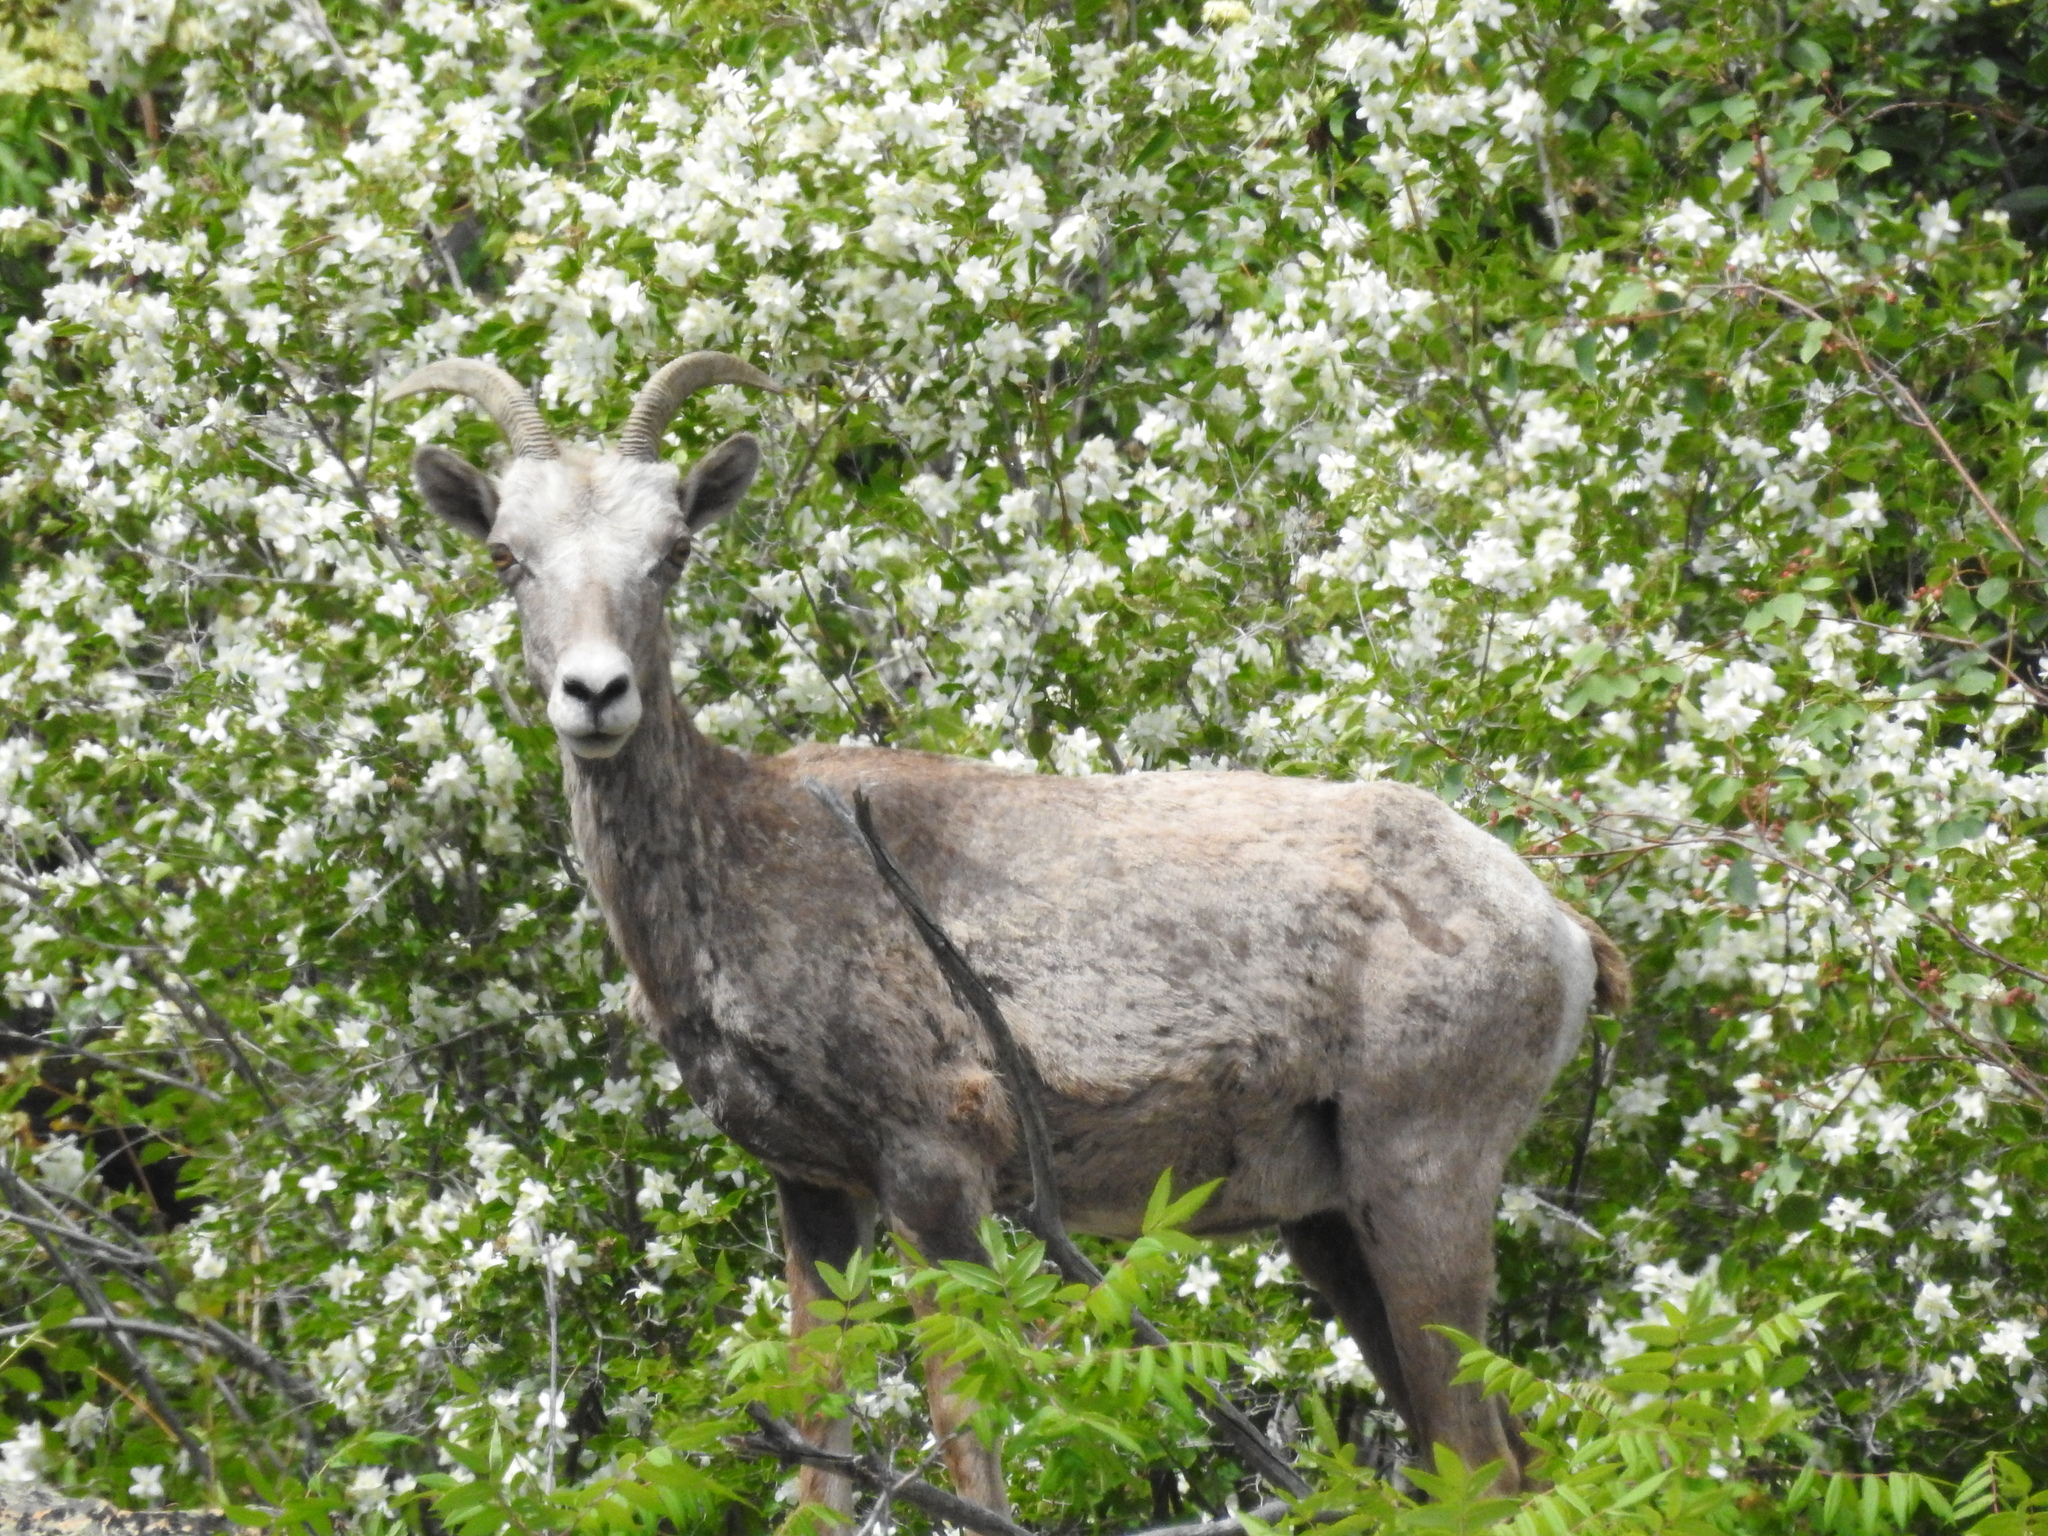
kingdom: Animalia
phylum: Chordata
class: Mammalia
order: Artiodactyla
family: Bovidae
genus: Ovis
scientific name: Ovis canadensis
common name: Bighorn sheep
